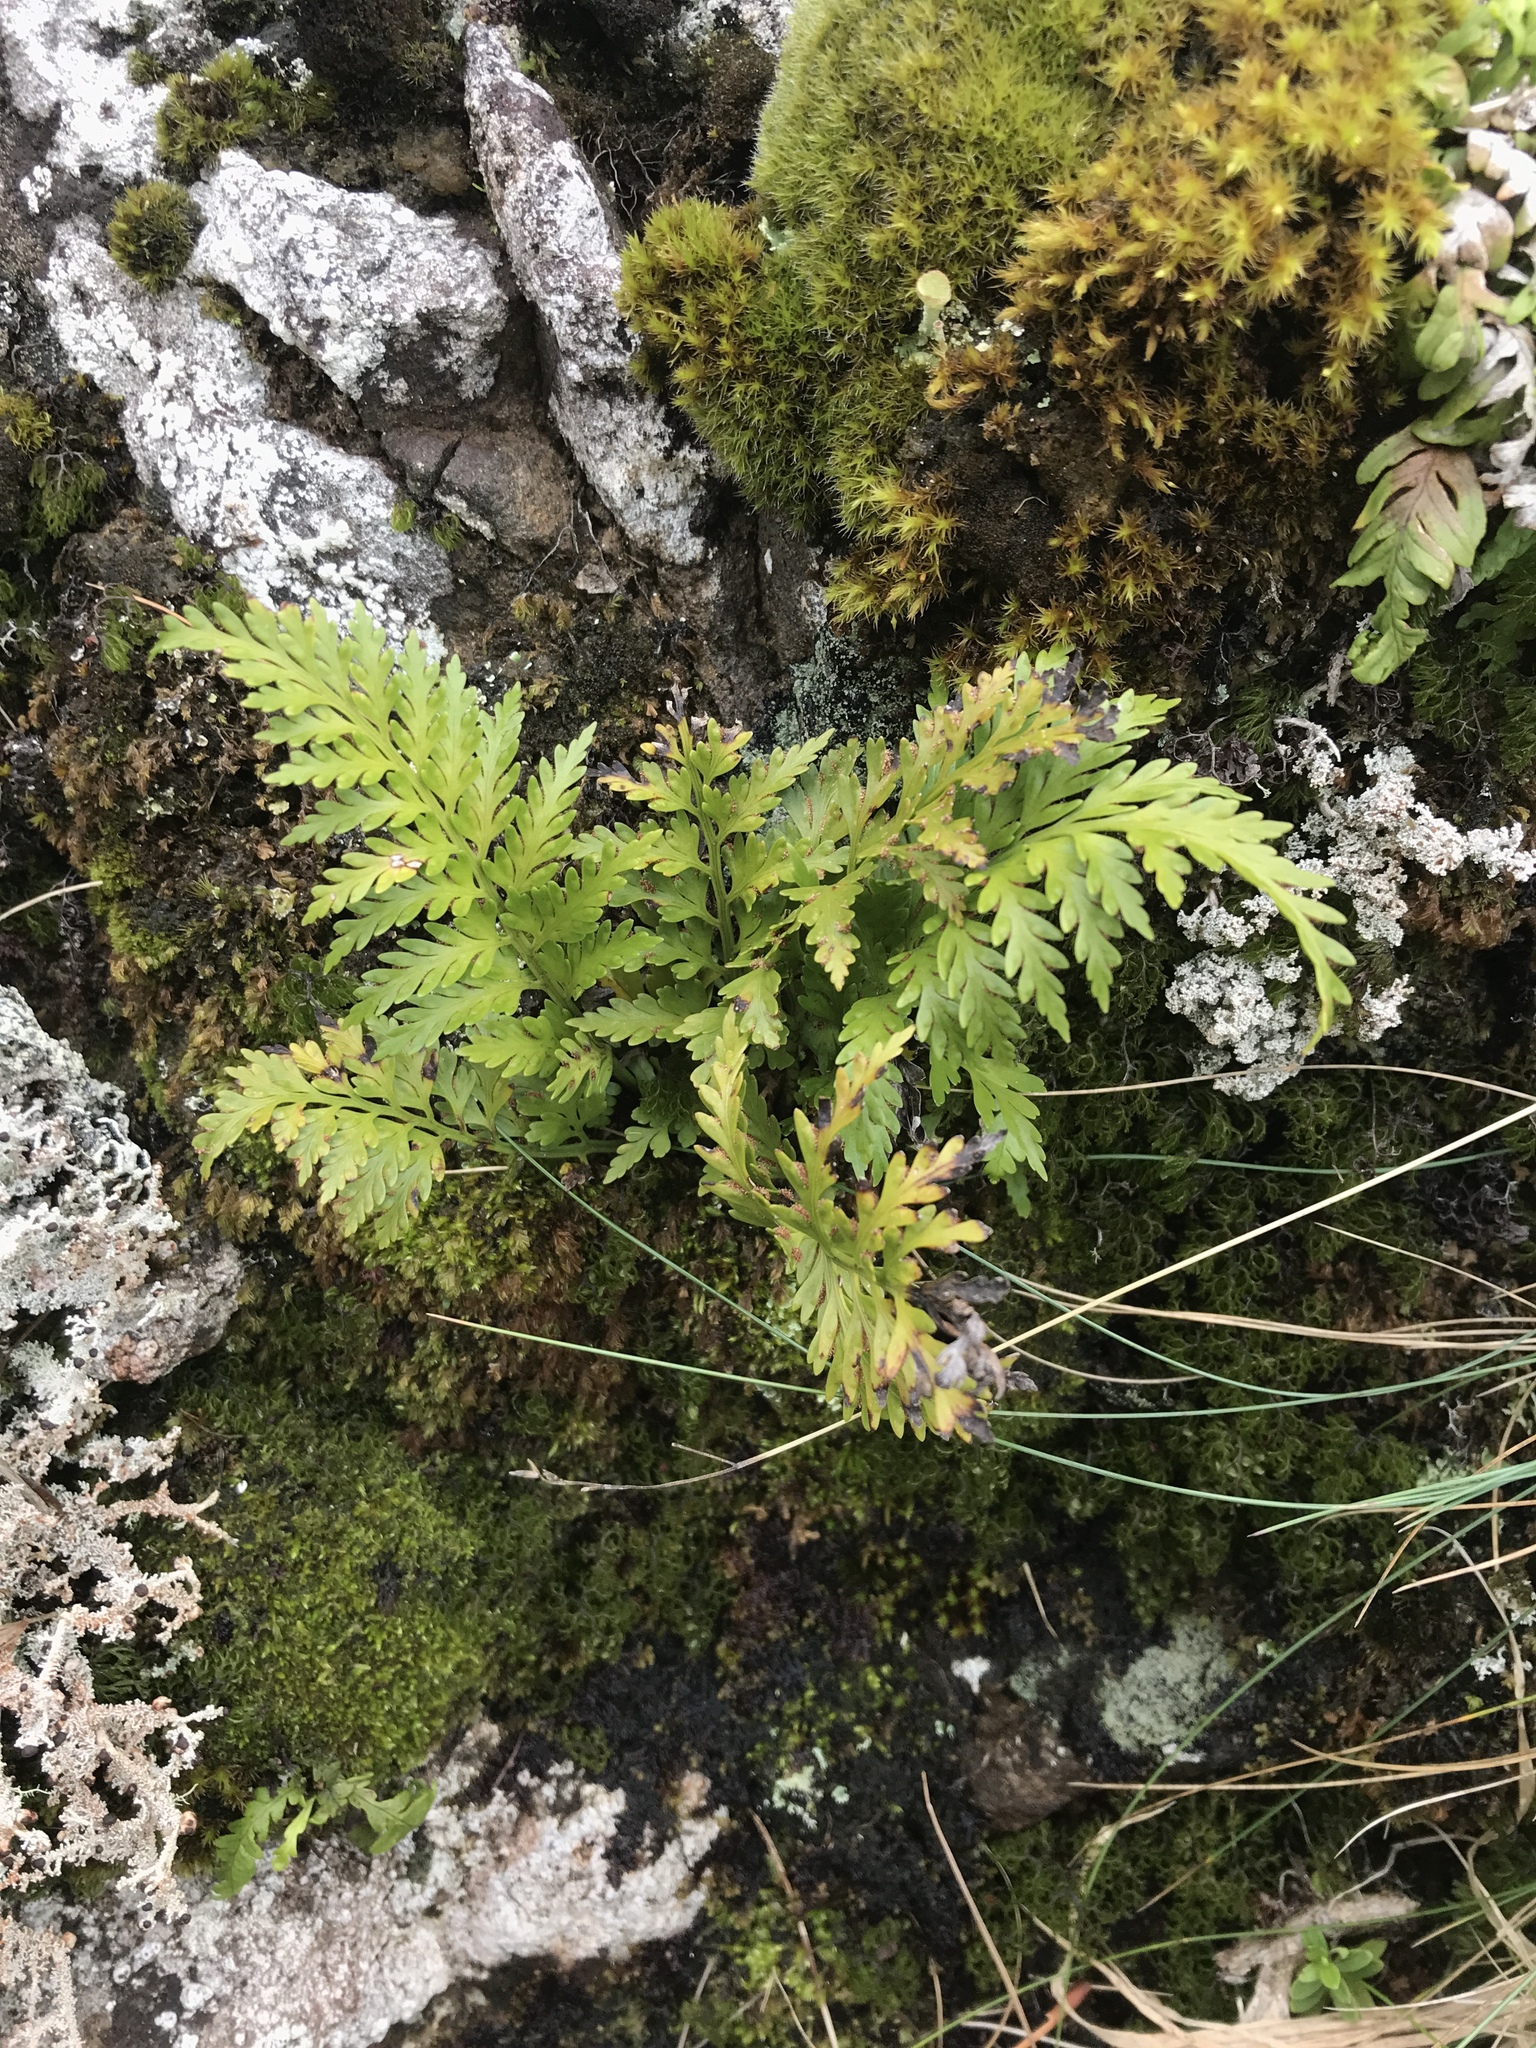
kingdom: Plantae
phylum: Tracheophyta
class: Polypodiopsida
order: Polypodiales
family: Aspleniaceae
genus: Asplenium
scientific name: Asplenium appendiculatum
